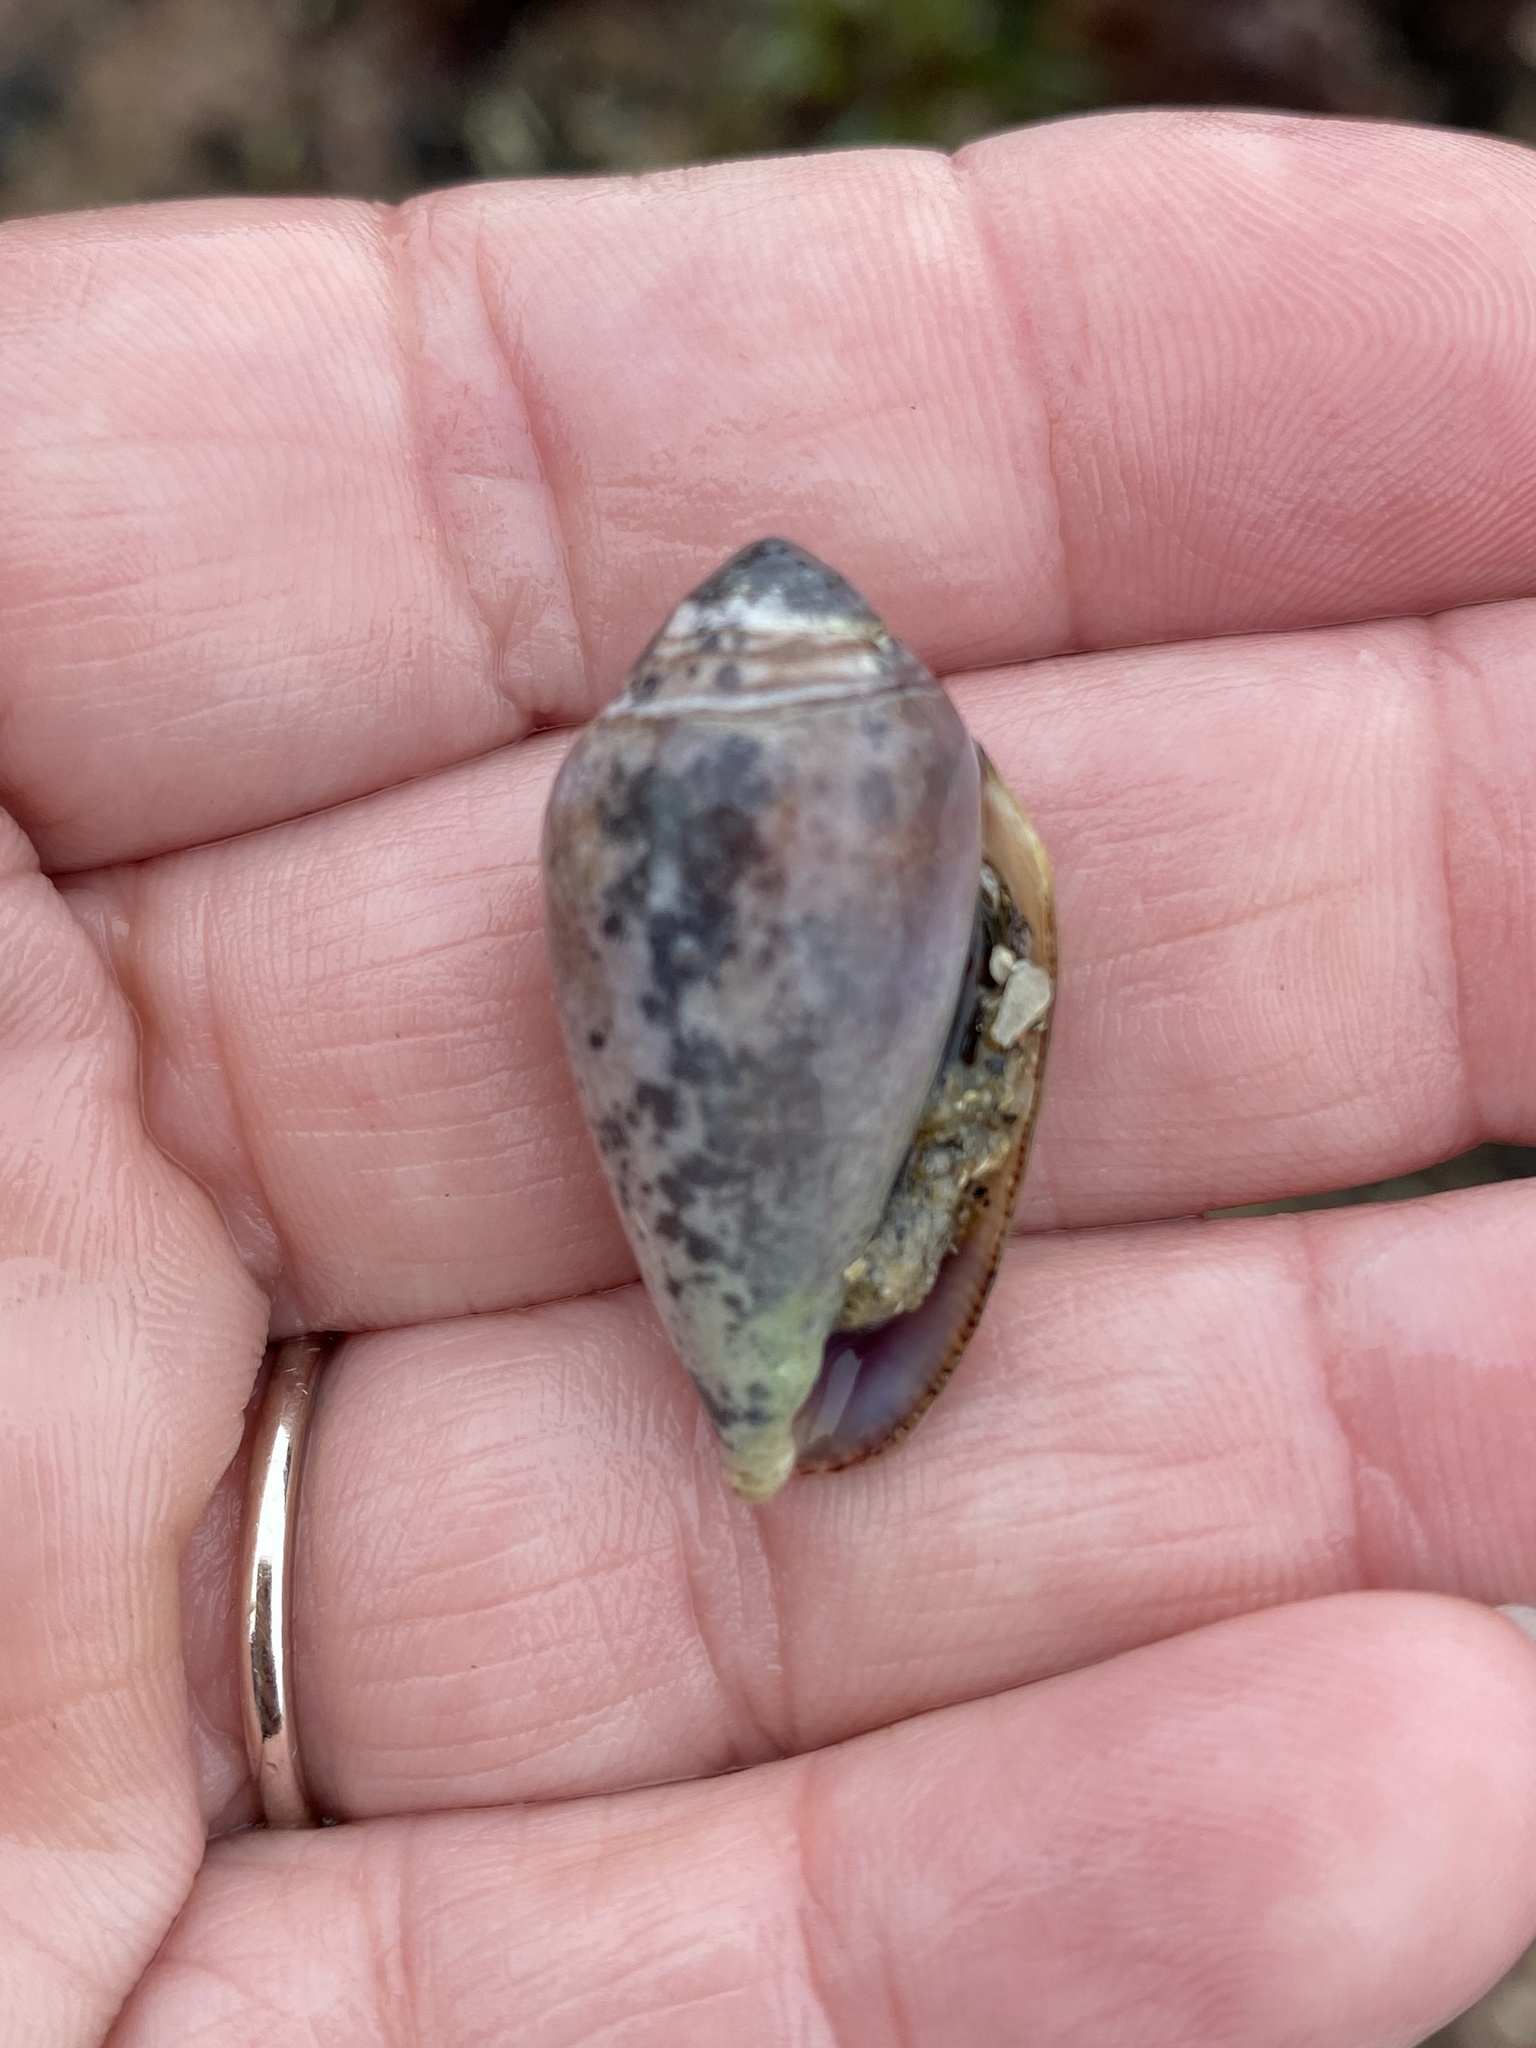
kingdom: Animalia
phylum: Mollusca
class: Gastropoda
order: Neogastropoda
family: Conidae
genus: Californiconus
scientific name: Californiconus californicus
